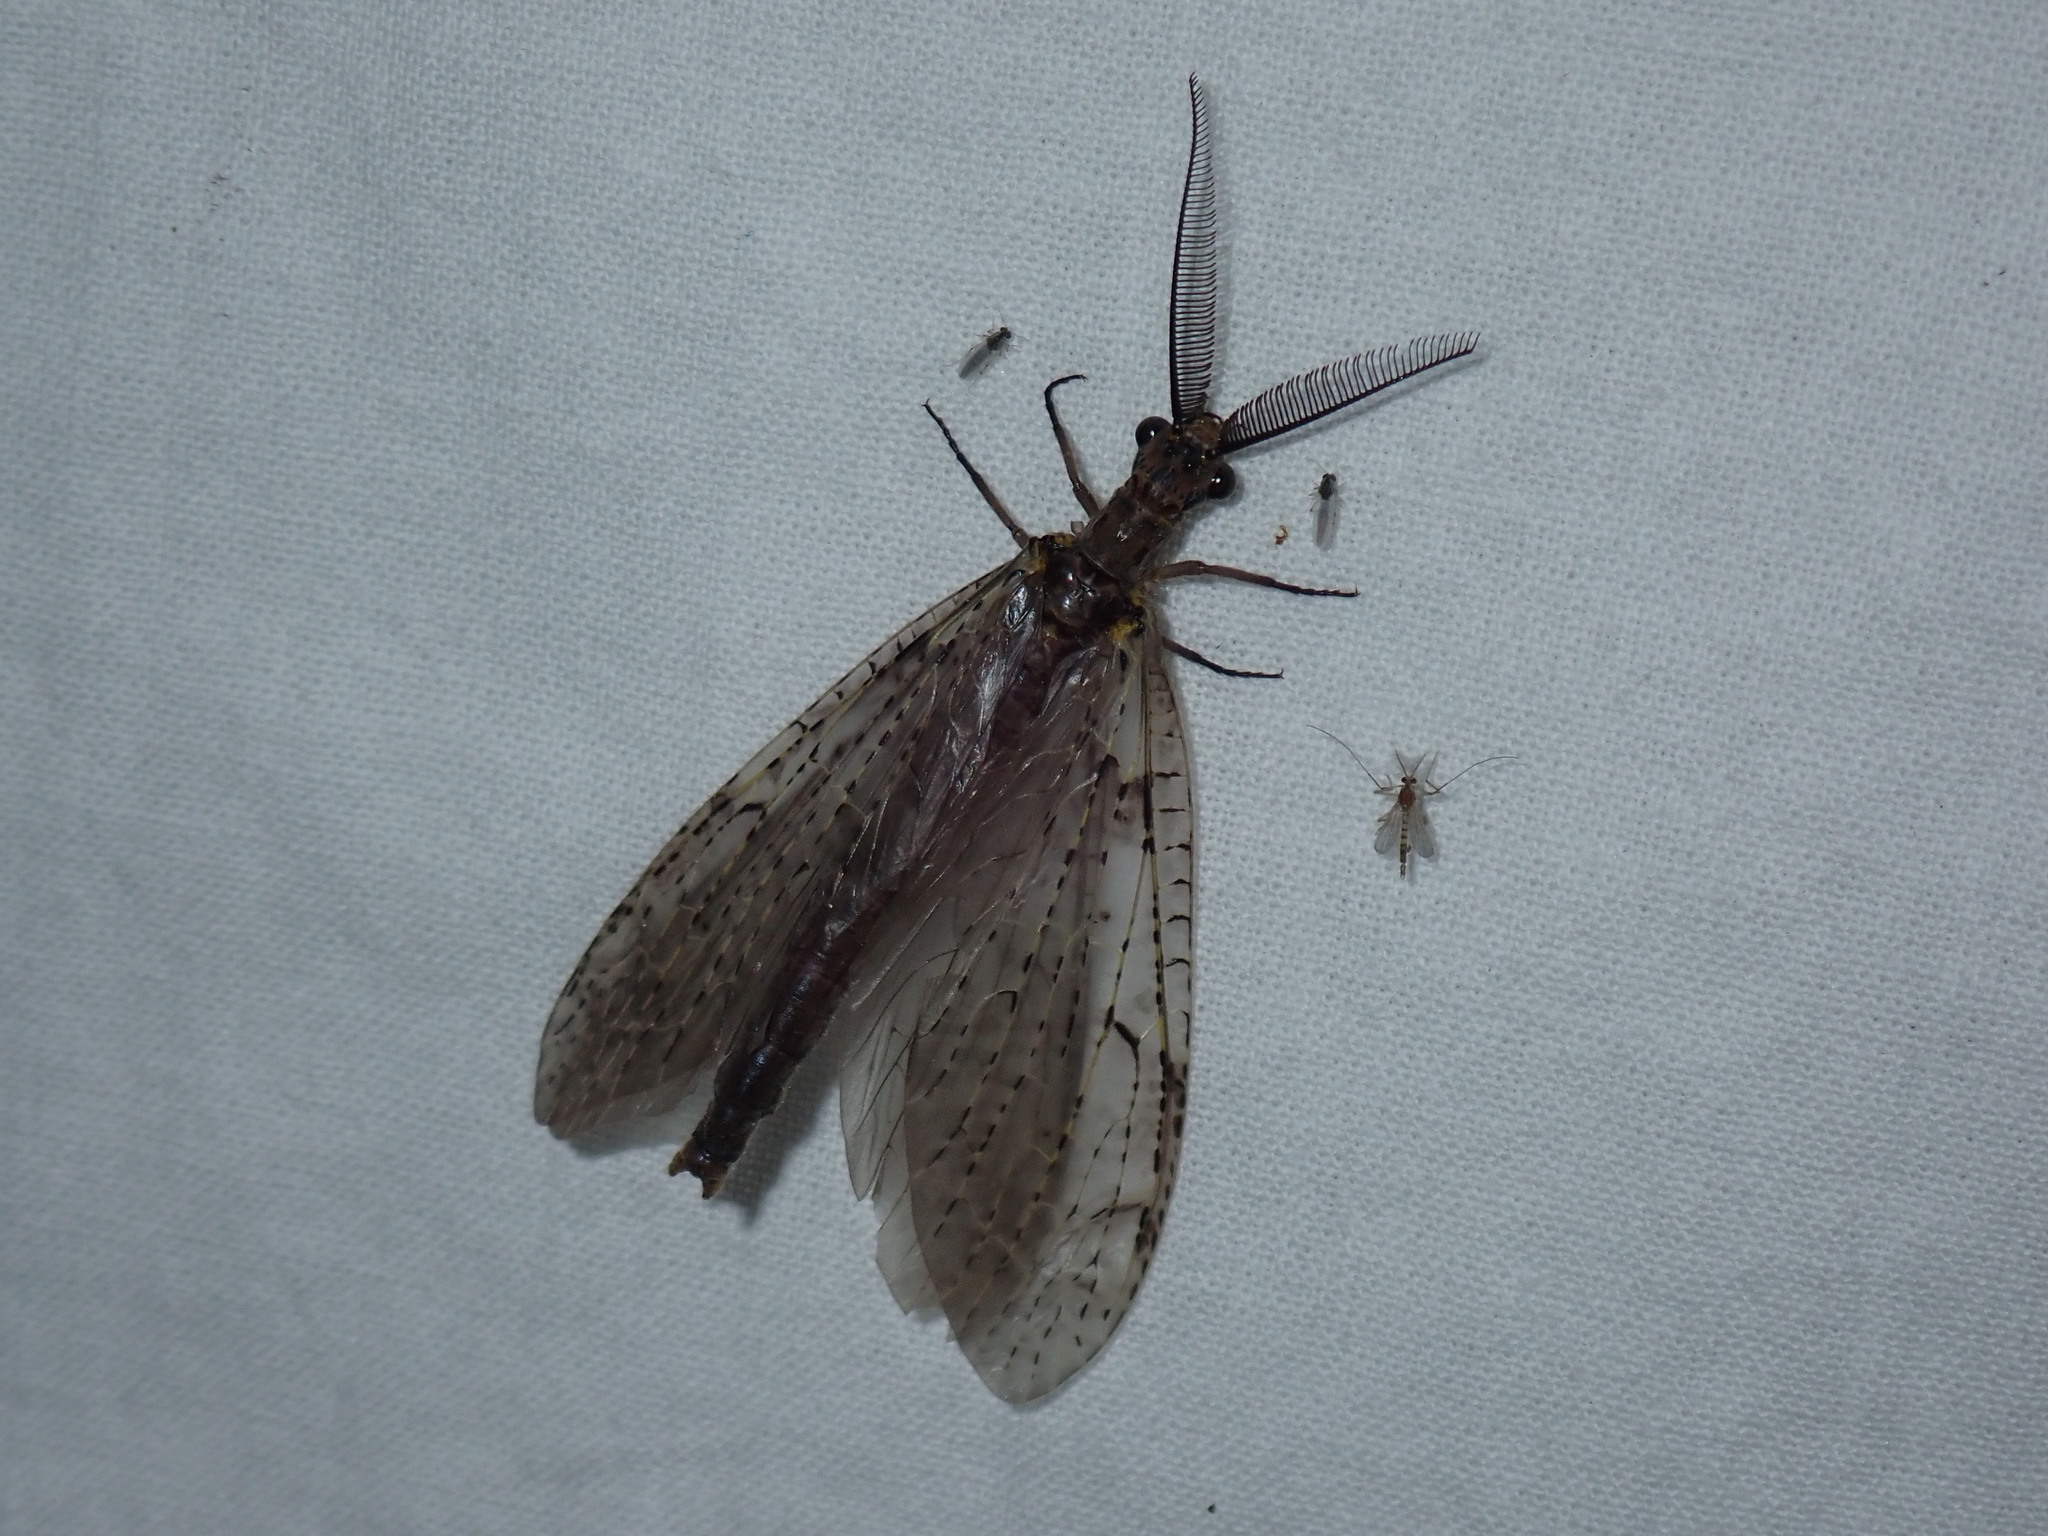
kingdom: Animalia
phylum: Arthropoda
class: Insecta
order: Megaloptera
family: Corydalidae
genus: Chauliodes
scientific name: Chauliodes rastricornis
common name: Spring fishfly
